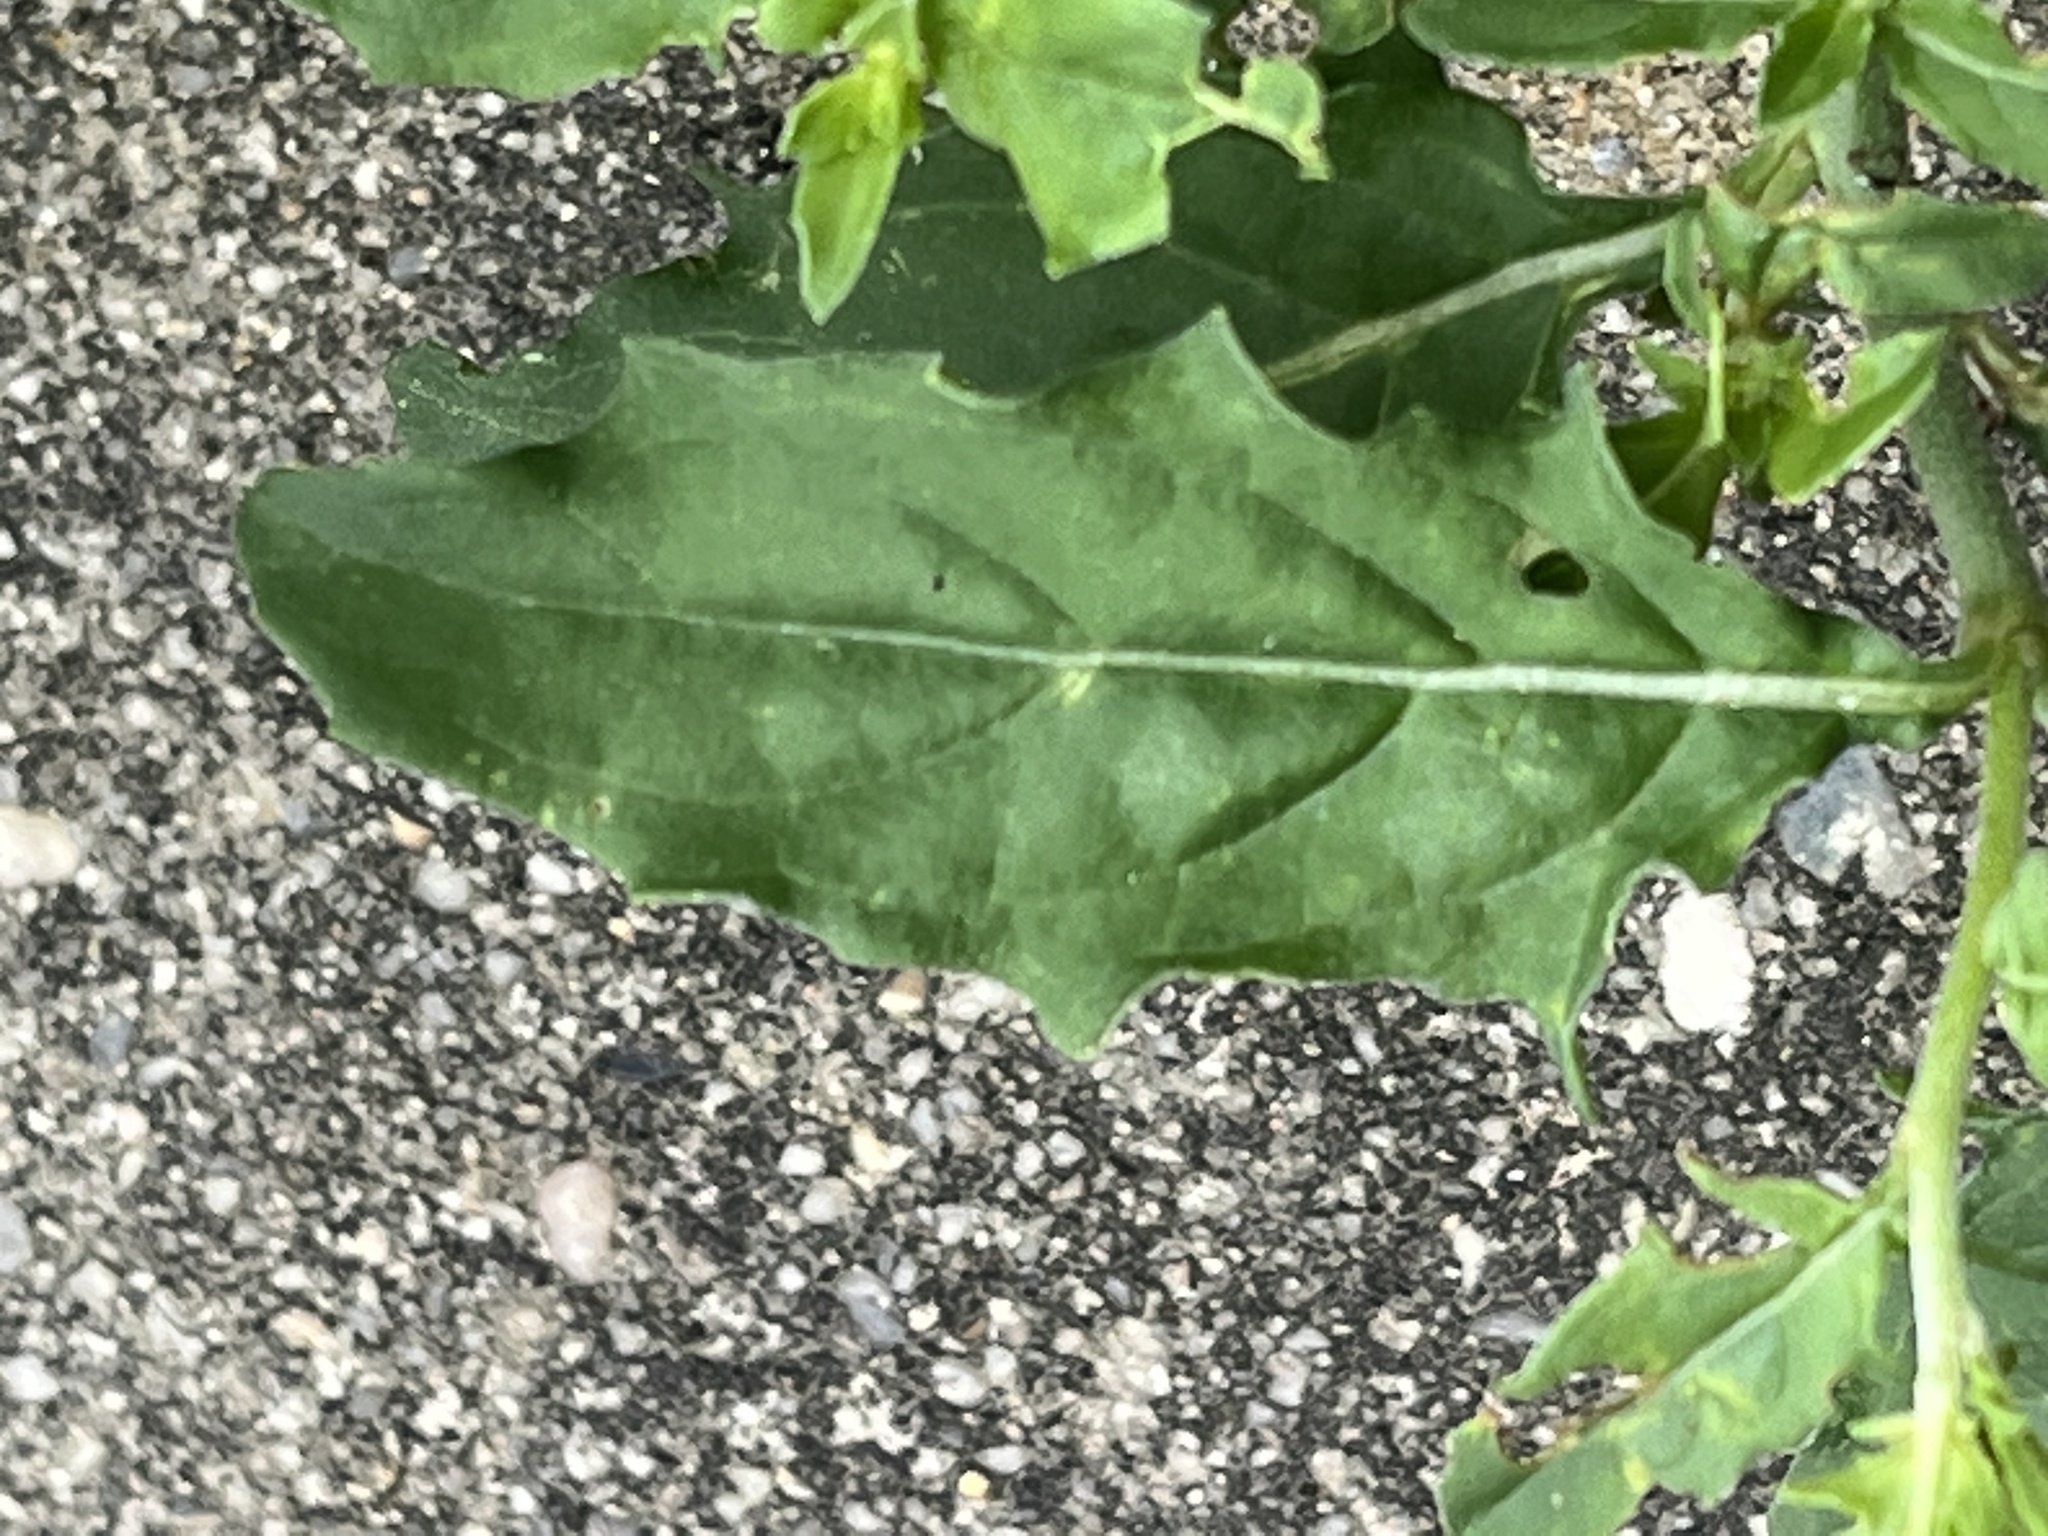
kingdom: Plantae
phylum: Tracheophyta
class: Magnoliopsida
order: Myrtales
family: Onagraceae
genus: Oenothera
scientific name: Oenothera speciosa
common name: White evening-primrose
